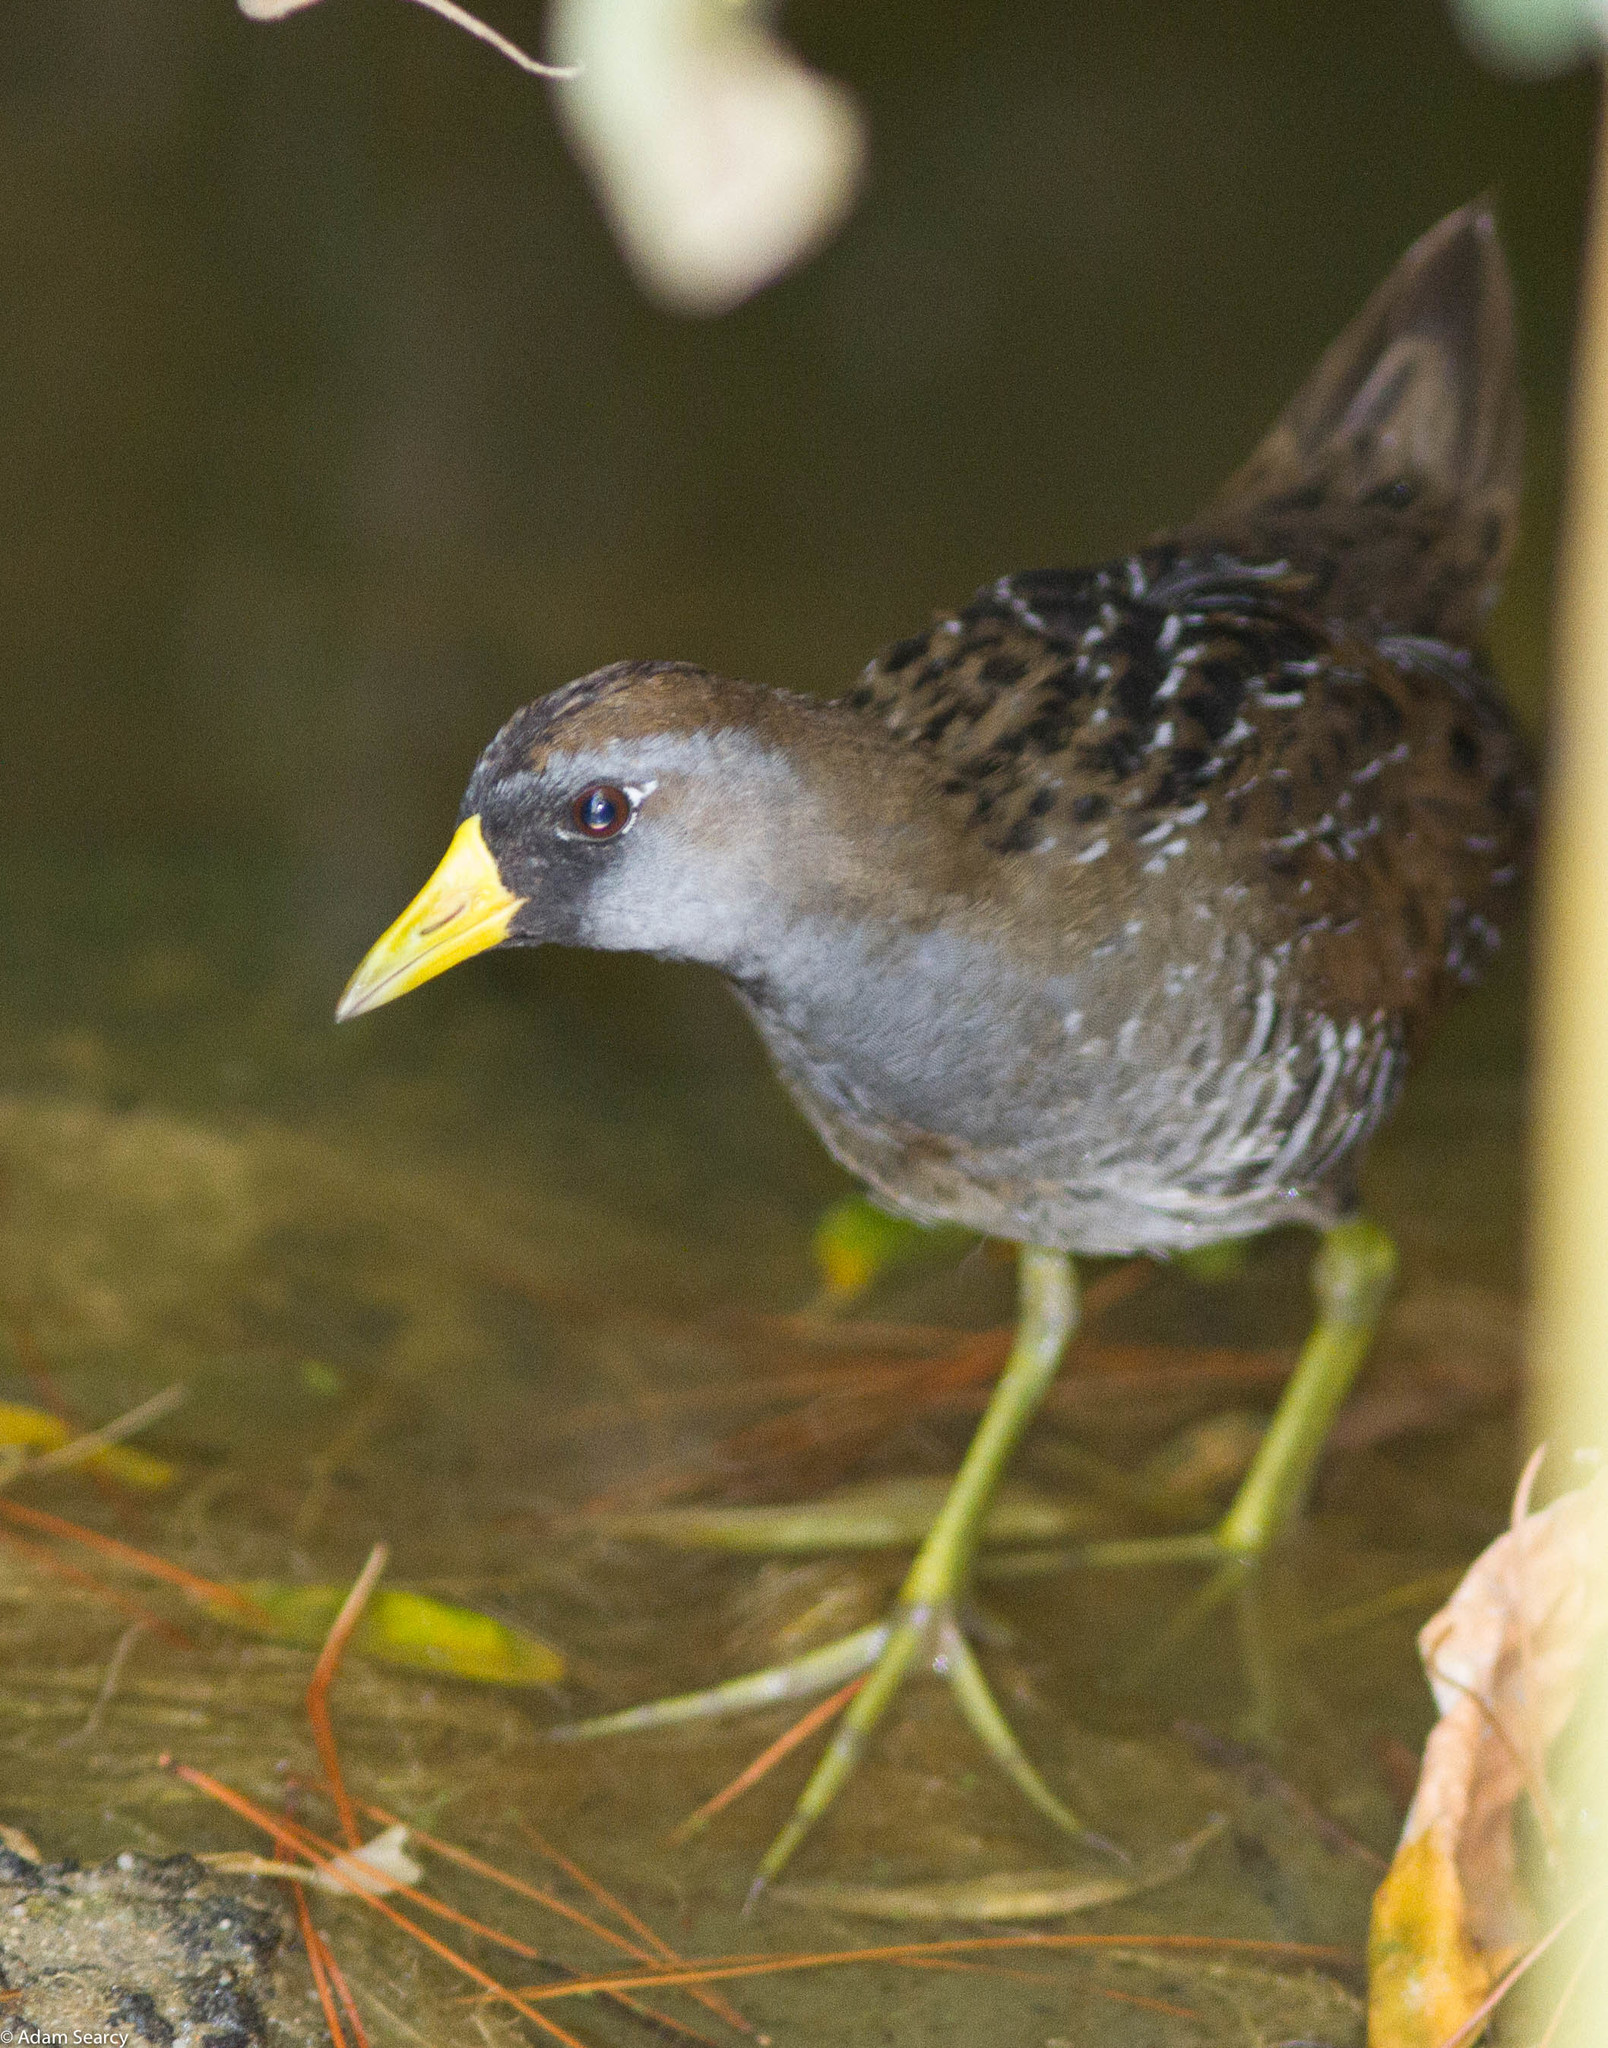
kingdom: Animalia
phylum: Chordata
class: Aves
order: Gruiformes
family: Rallidae
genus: Porzana
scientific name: Porzana carolina
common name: Sora
